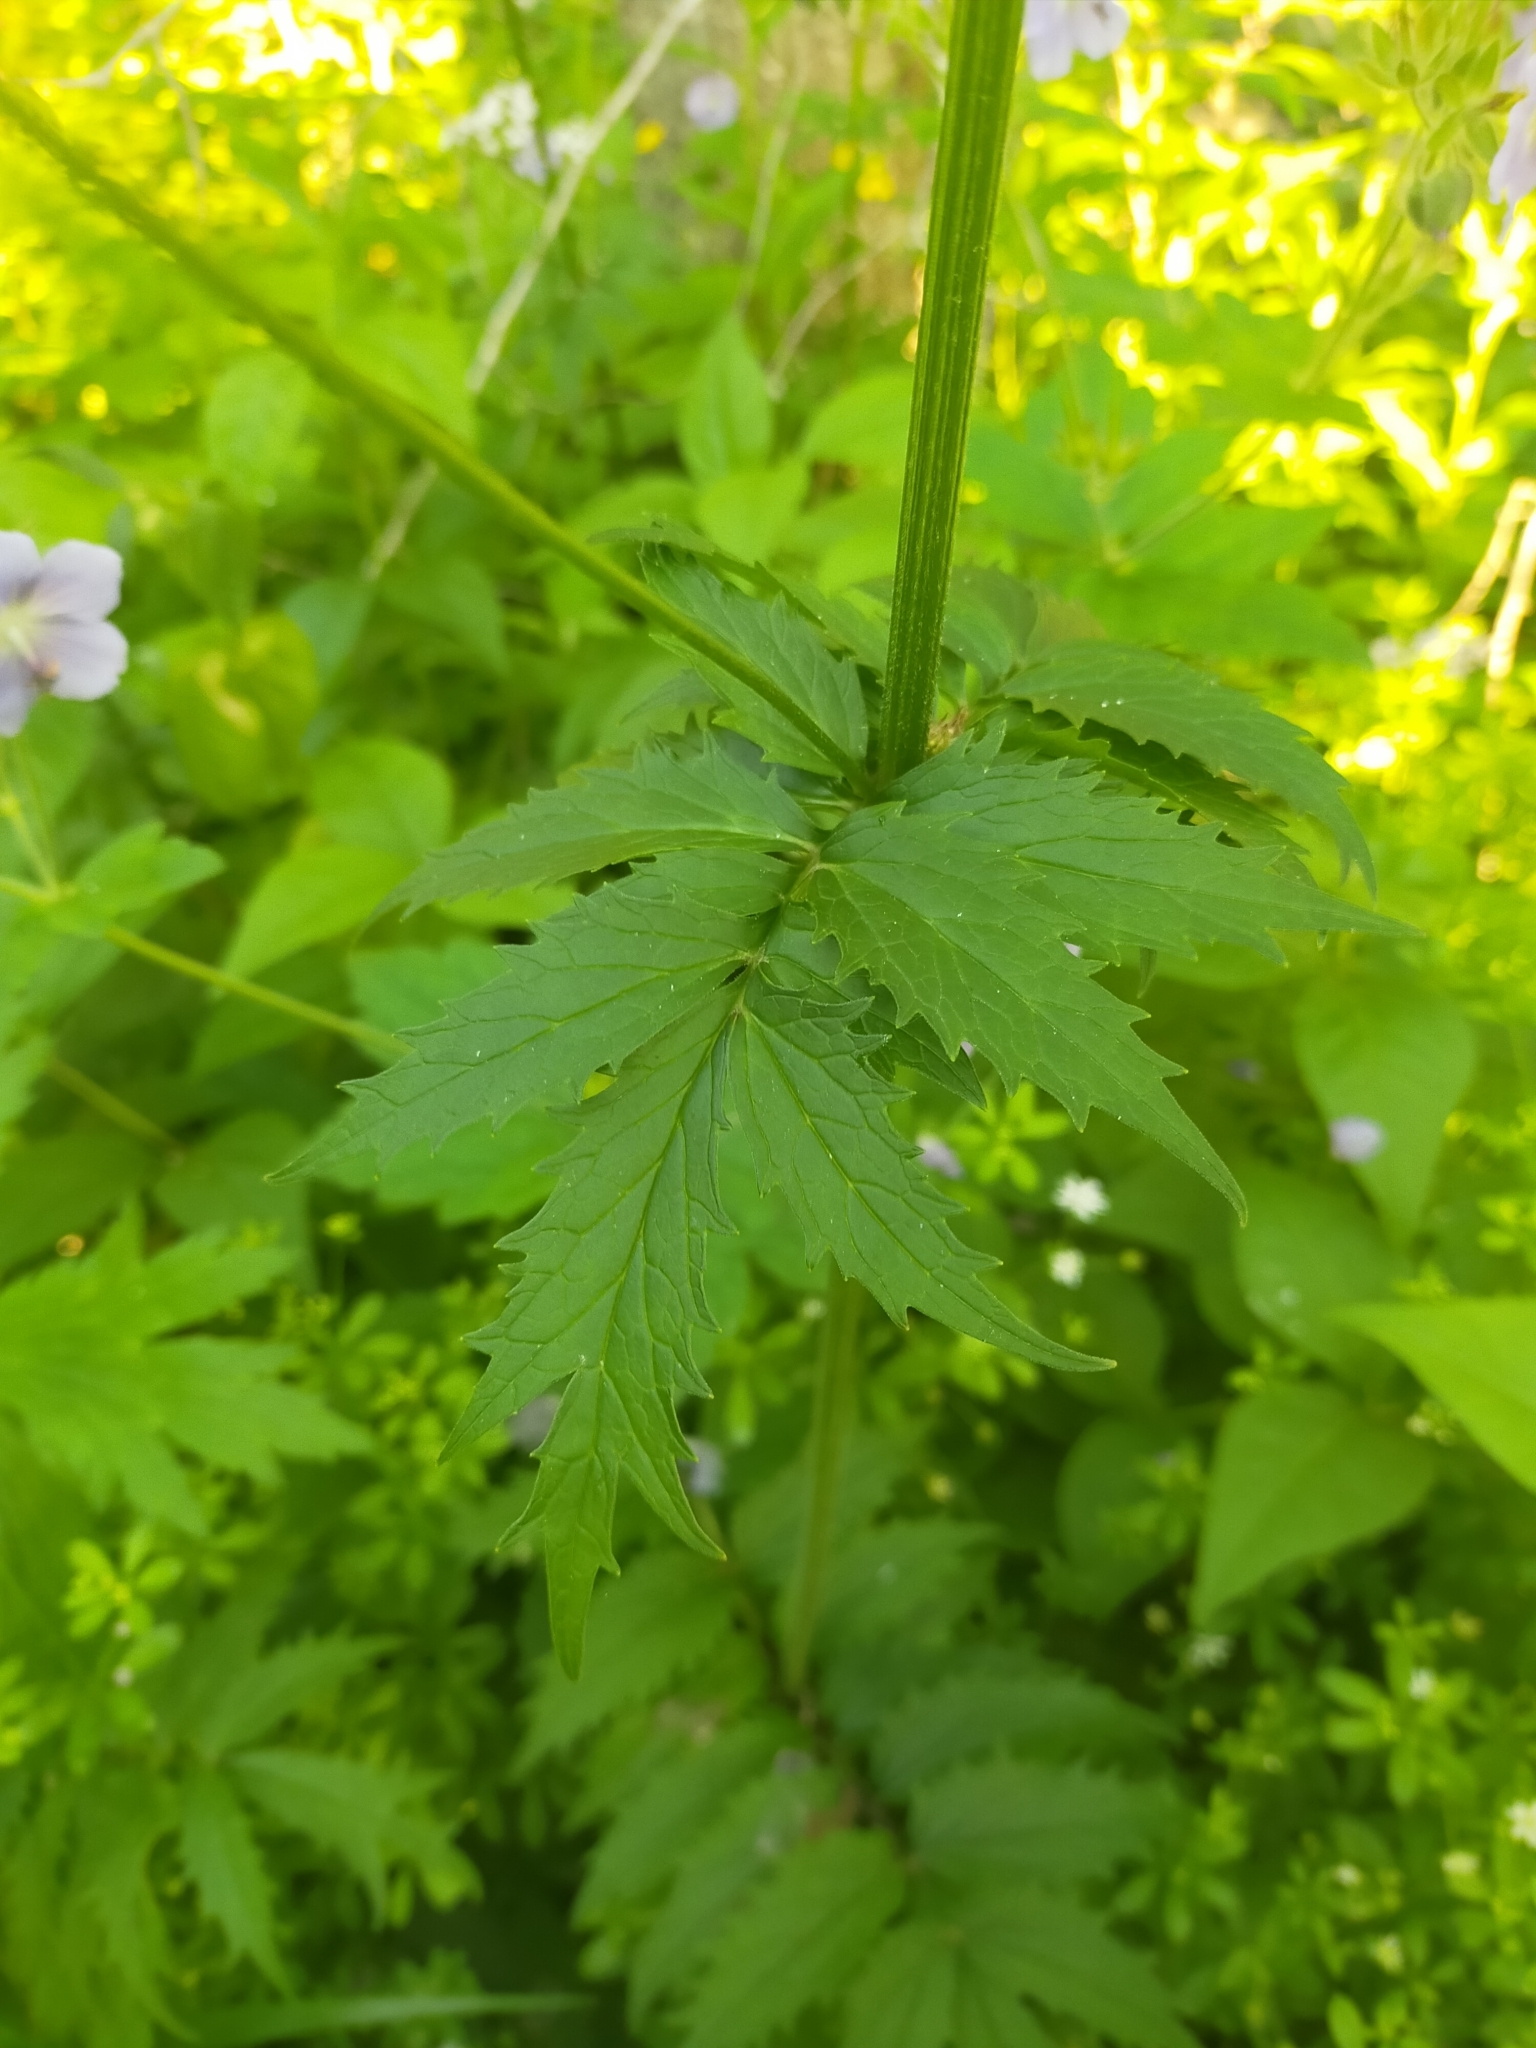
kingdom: Plantae
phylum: Tracheophyta
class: Magnoliopsida
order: Dipsacales
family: Caprifoliaceae
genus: Valeriana
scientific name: Valeriana fauriei
